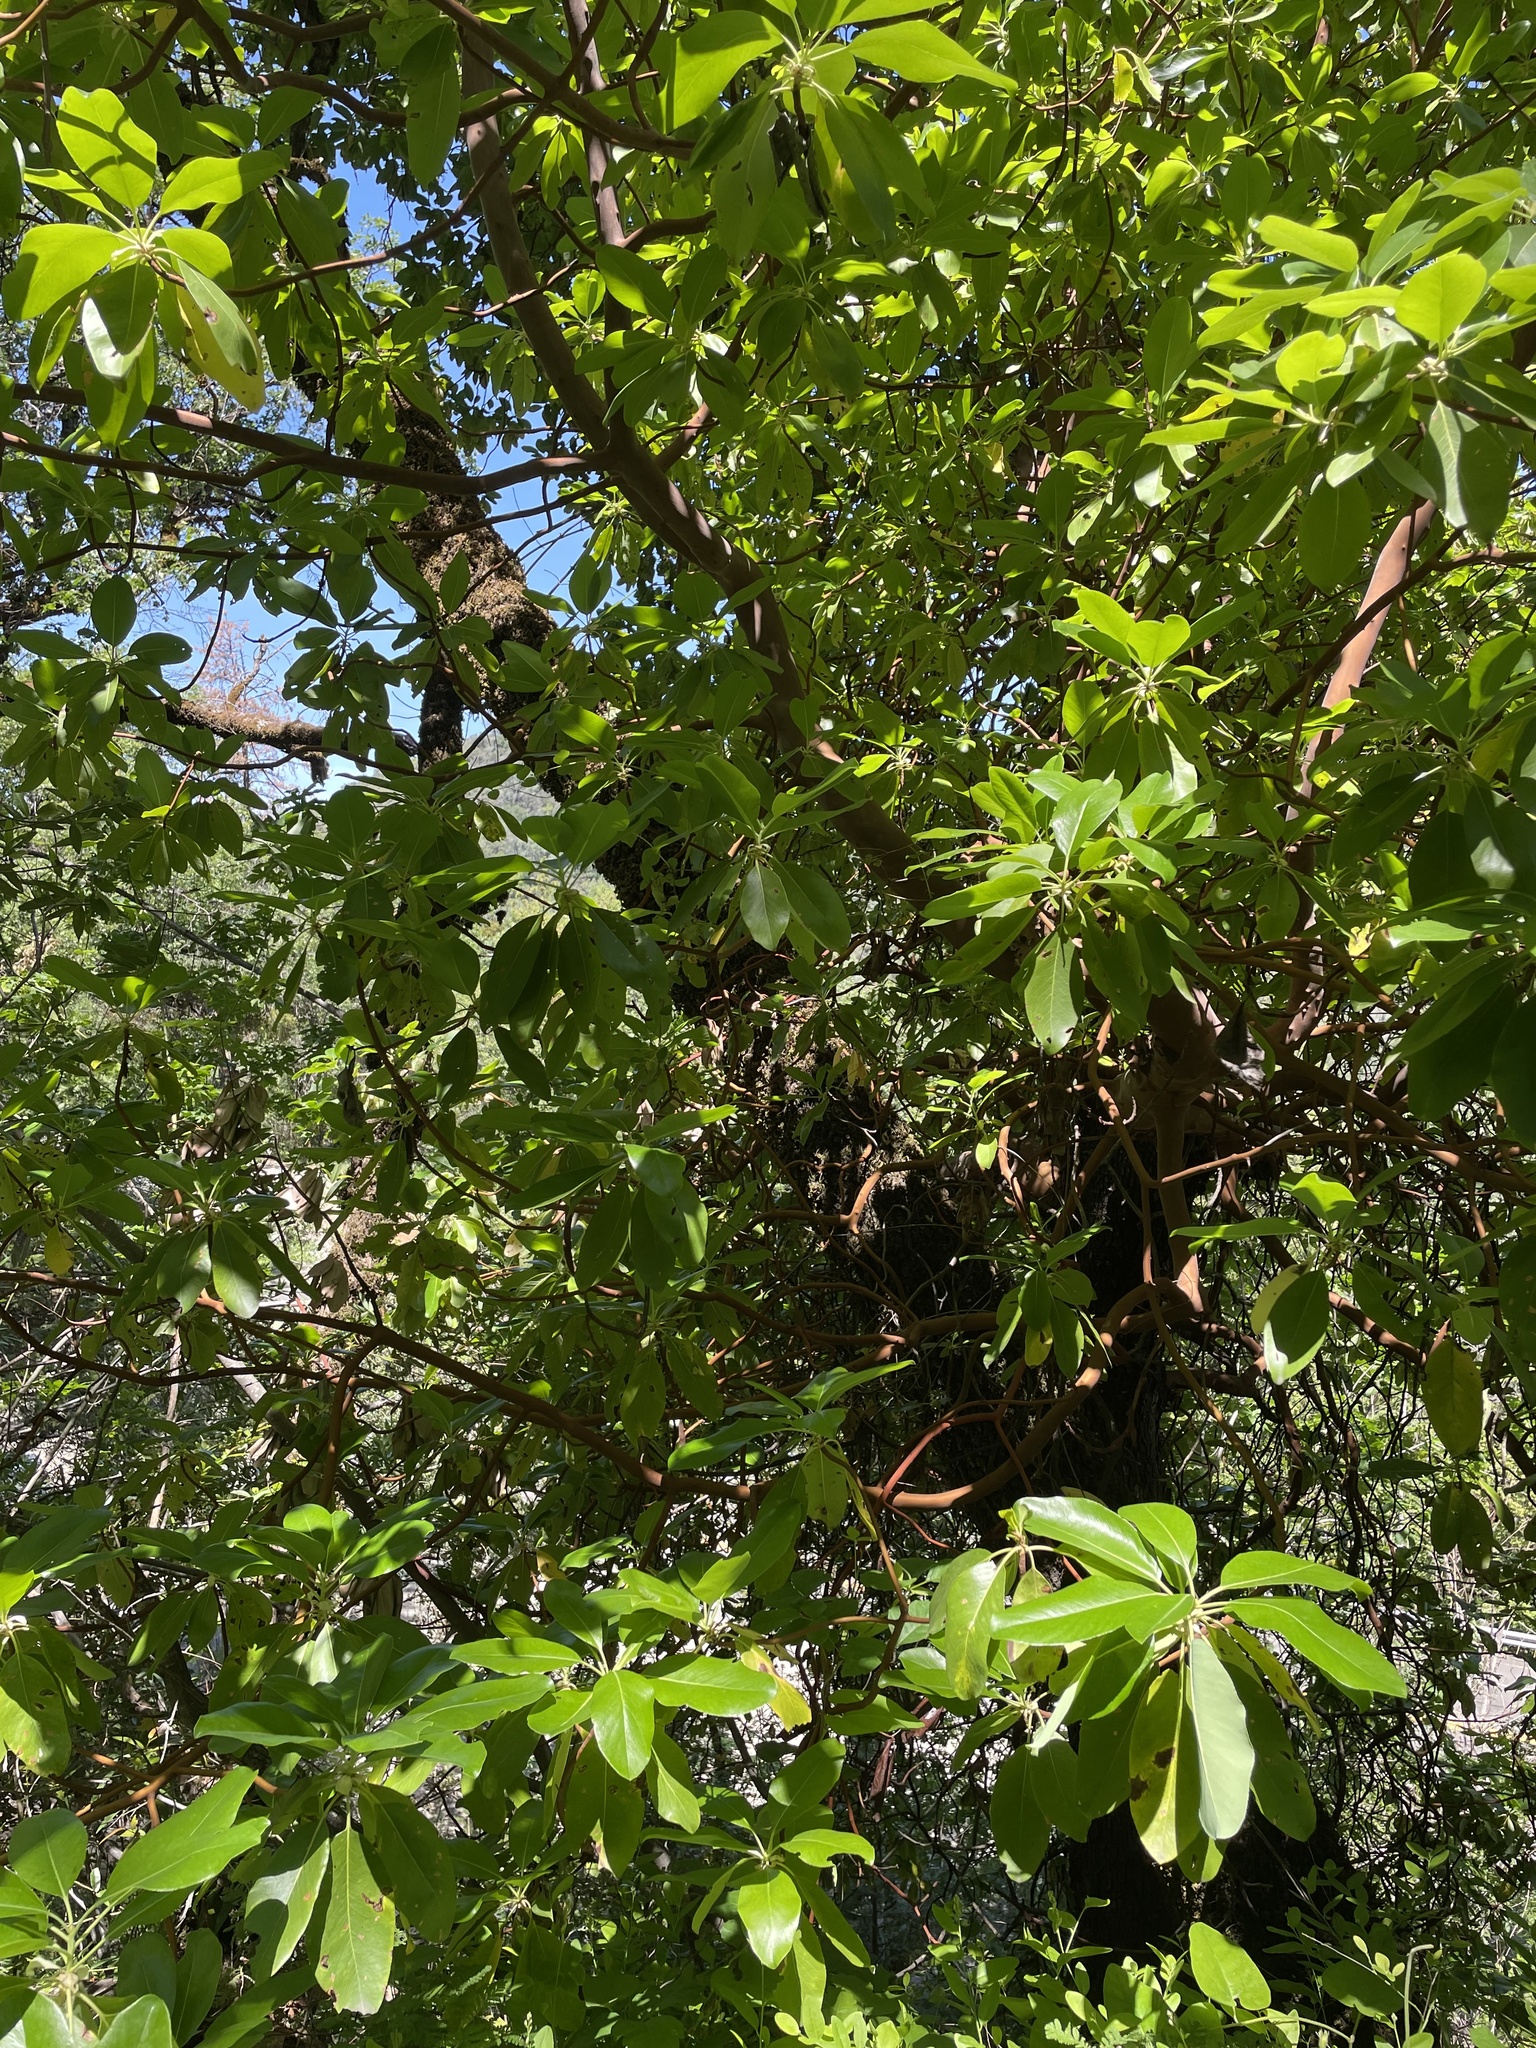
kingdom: Plantae
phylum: Tracheophyta
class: Magnoliopsida
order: Ericales
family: Ericaceae
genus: Arbutus
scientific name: Arbutus menziesii
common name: Pacific madrone
